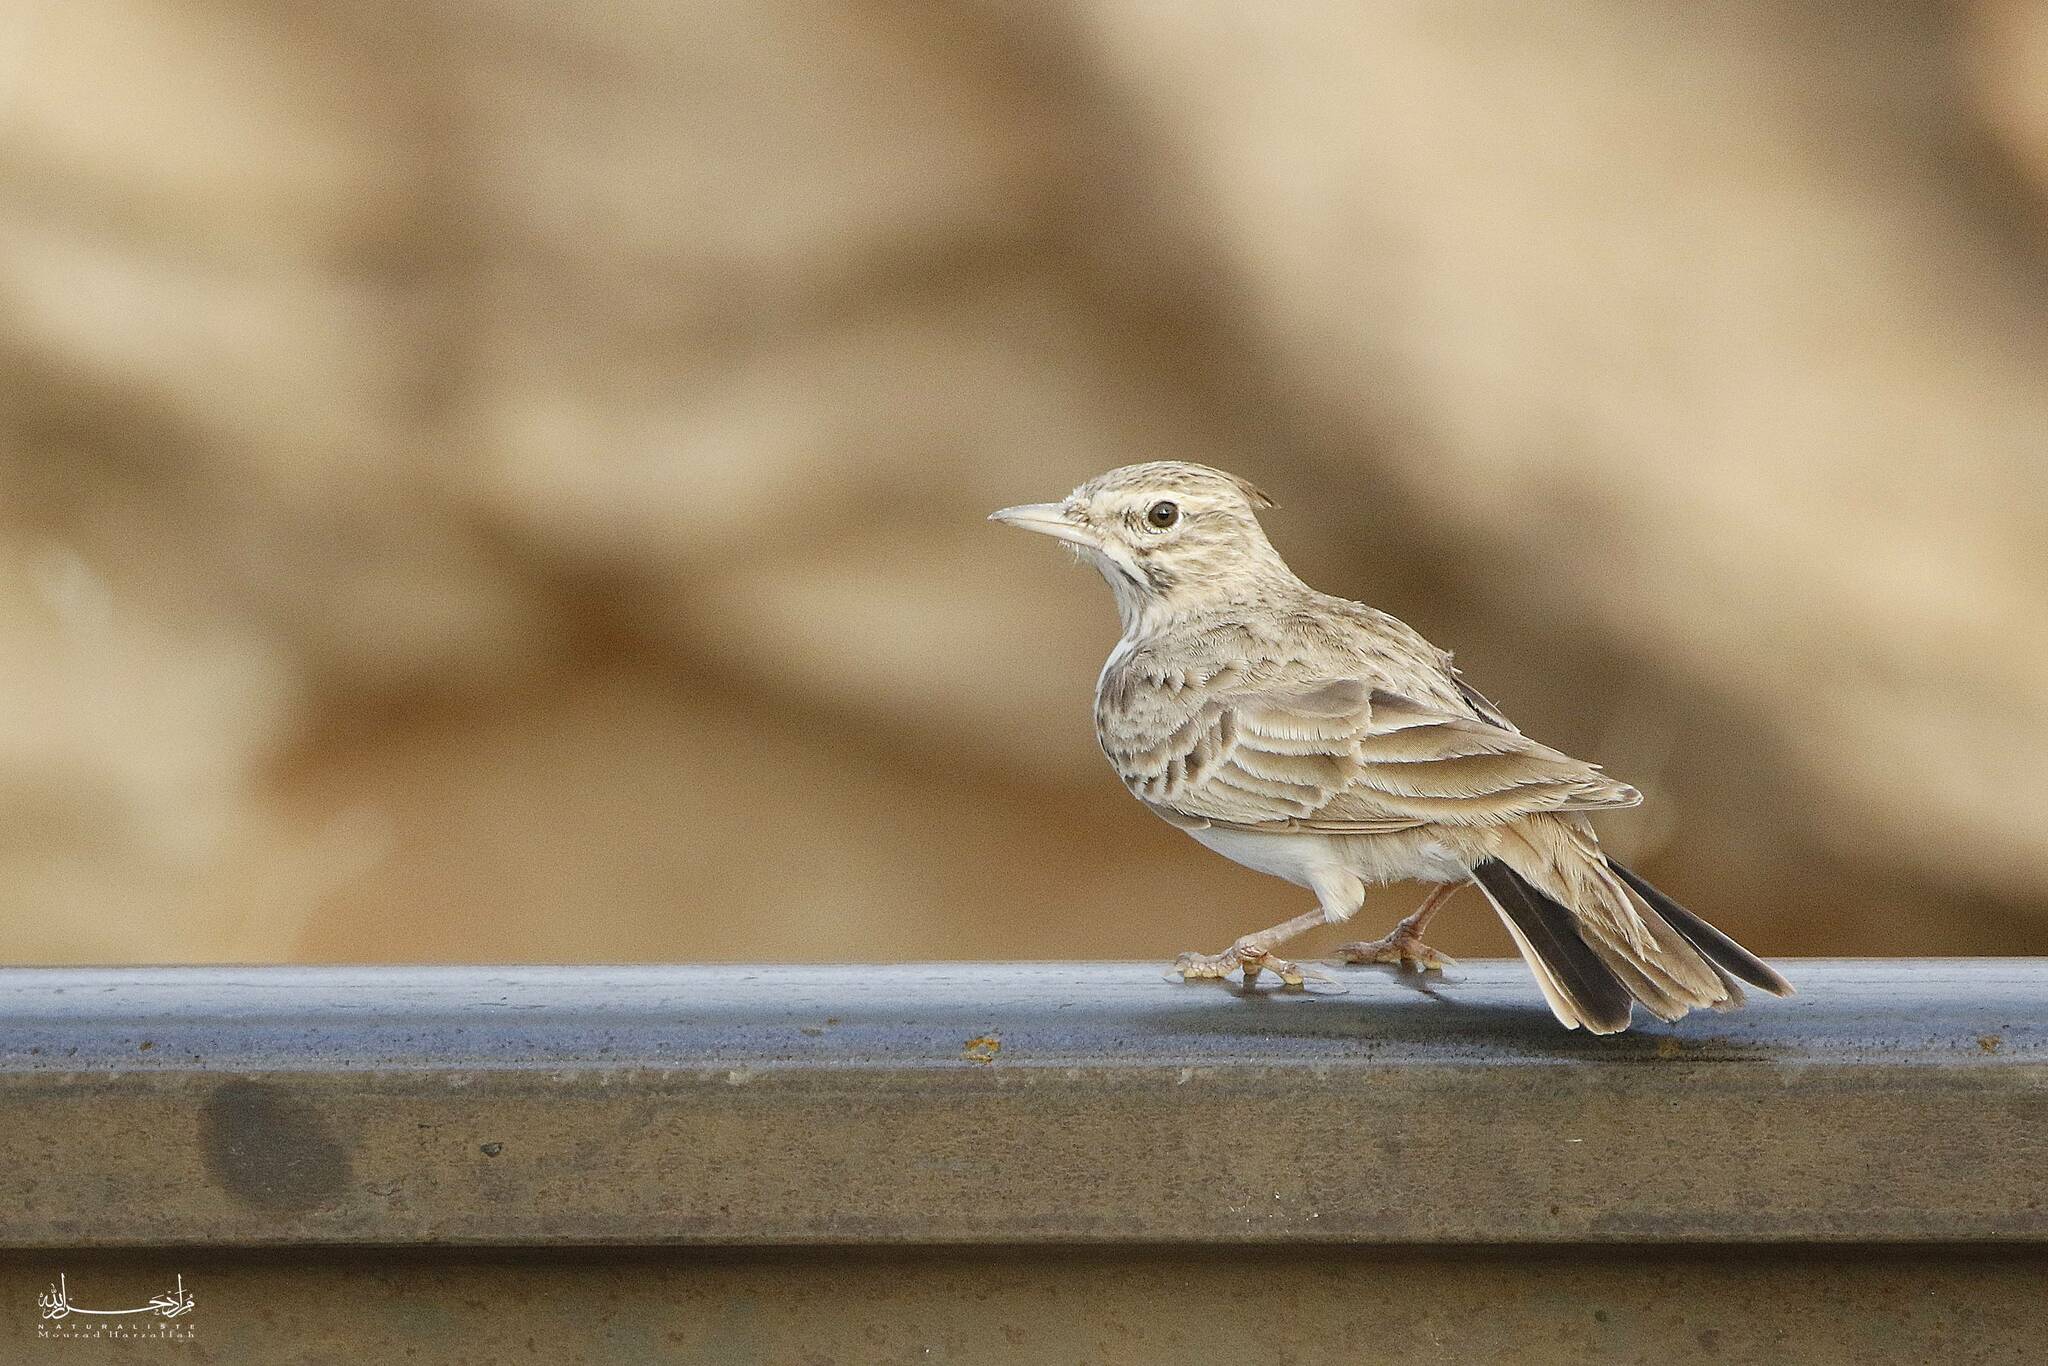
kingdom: Animalia
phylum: Chordata
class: Aves
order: Passeriformes
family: Alaudidae
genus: Galerida
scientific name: Galerida cristata
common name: Crested lark
